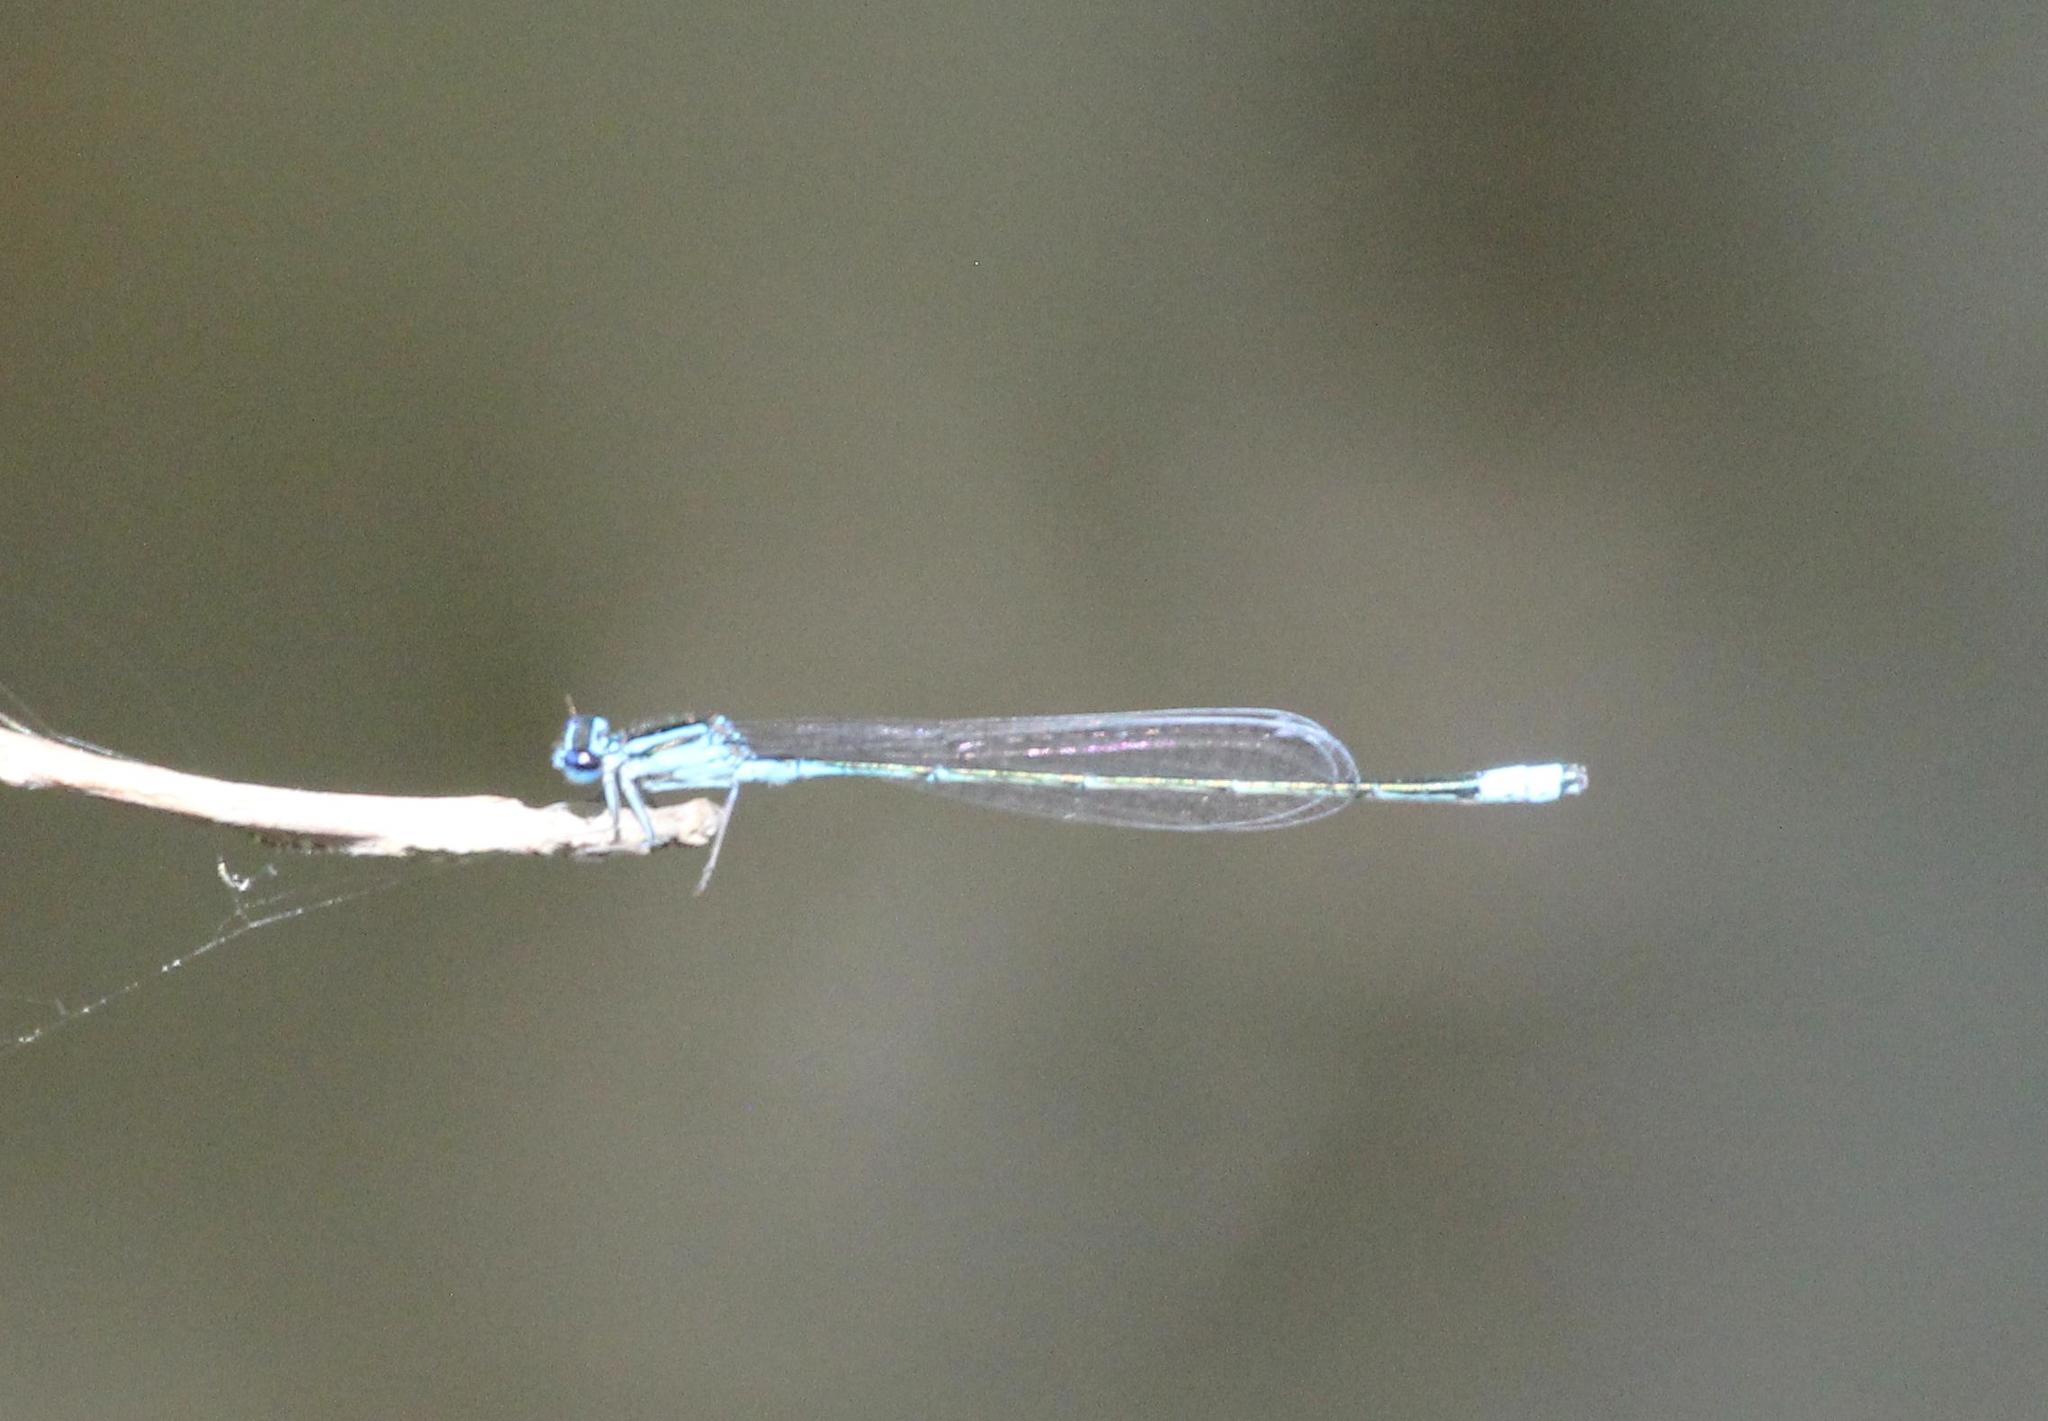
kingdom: Animalia
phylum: Arthropoda
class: Insecta
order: Odonata
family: Coenagrionidae
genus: Enallagma
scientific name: Enallagma divagans
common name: Turquoise bluet
